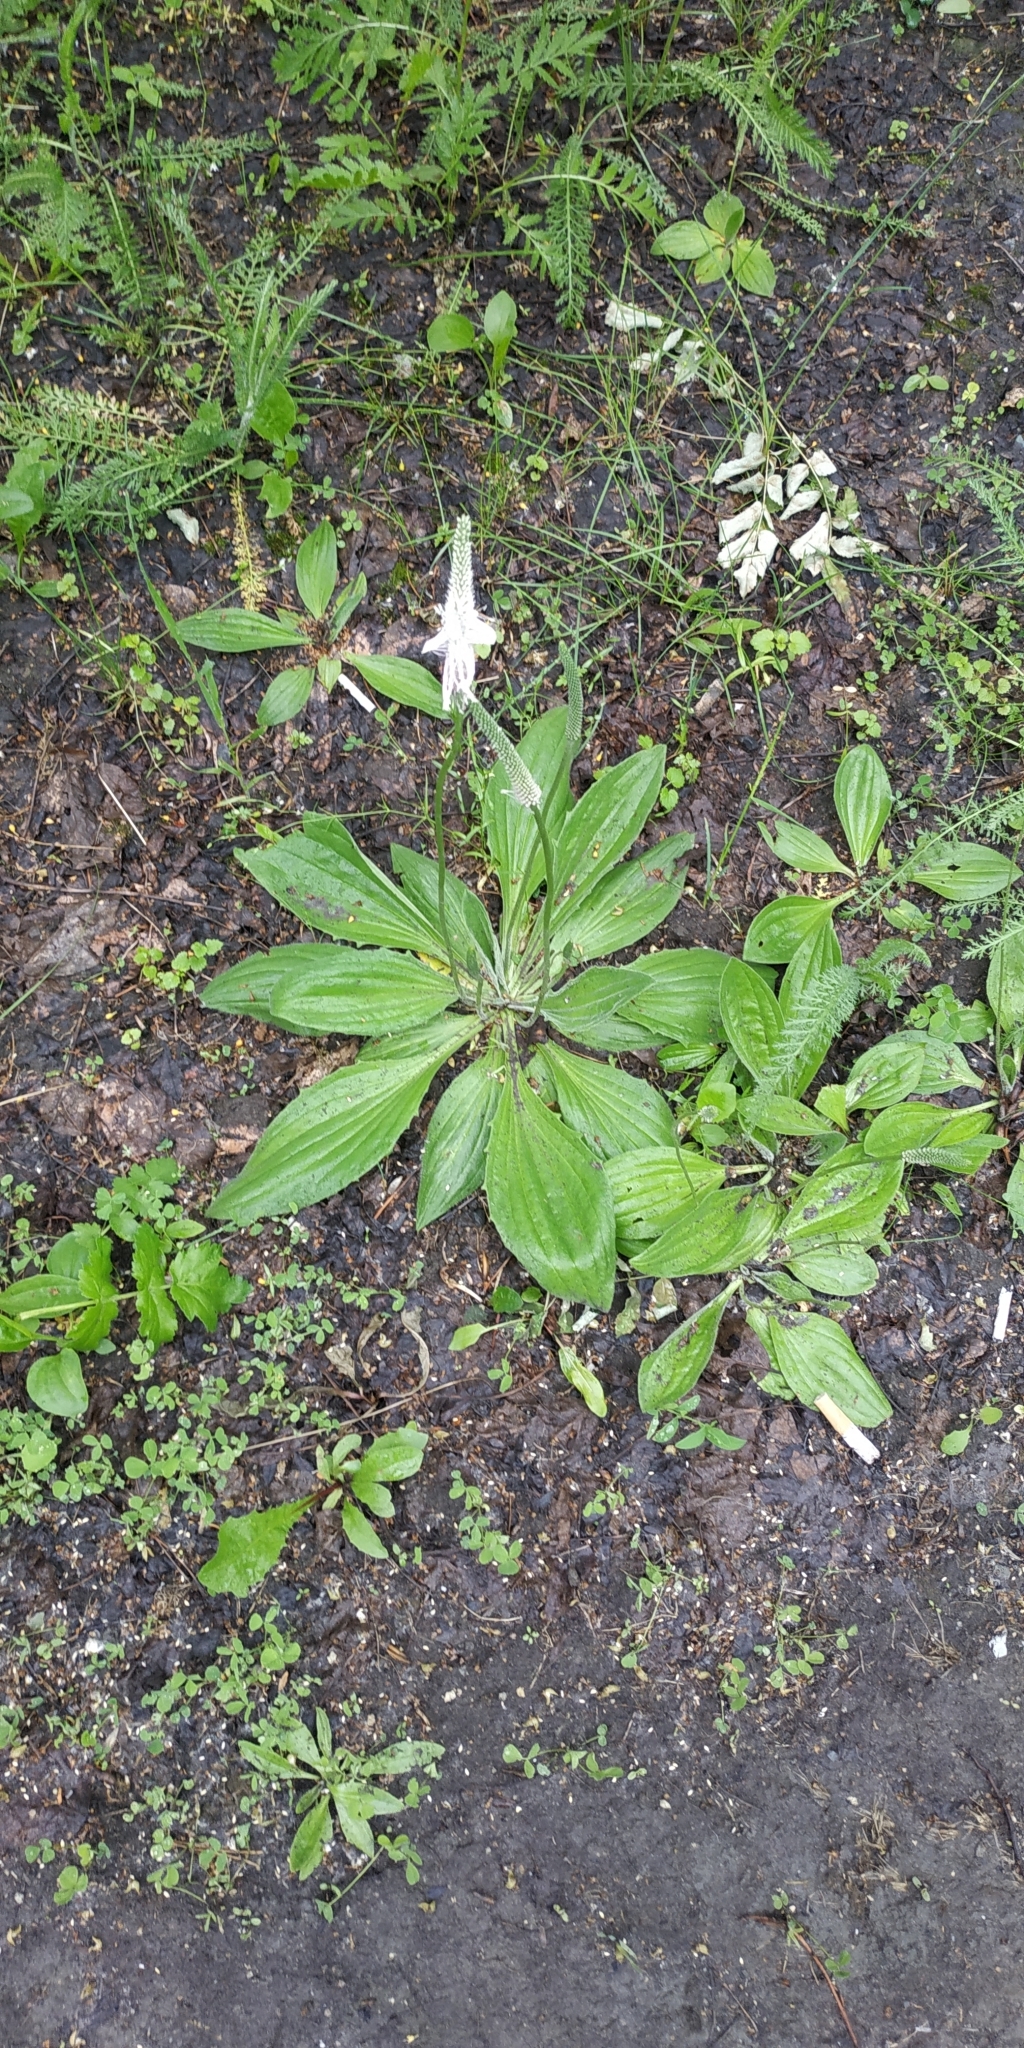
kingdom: Plantae
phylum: Tracheophyta
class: Magnoliopsida
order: Lamiales
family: Plantaginaceae
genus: Plantago
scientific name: Plantago media
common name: Hoary plantain
